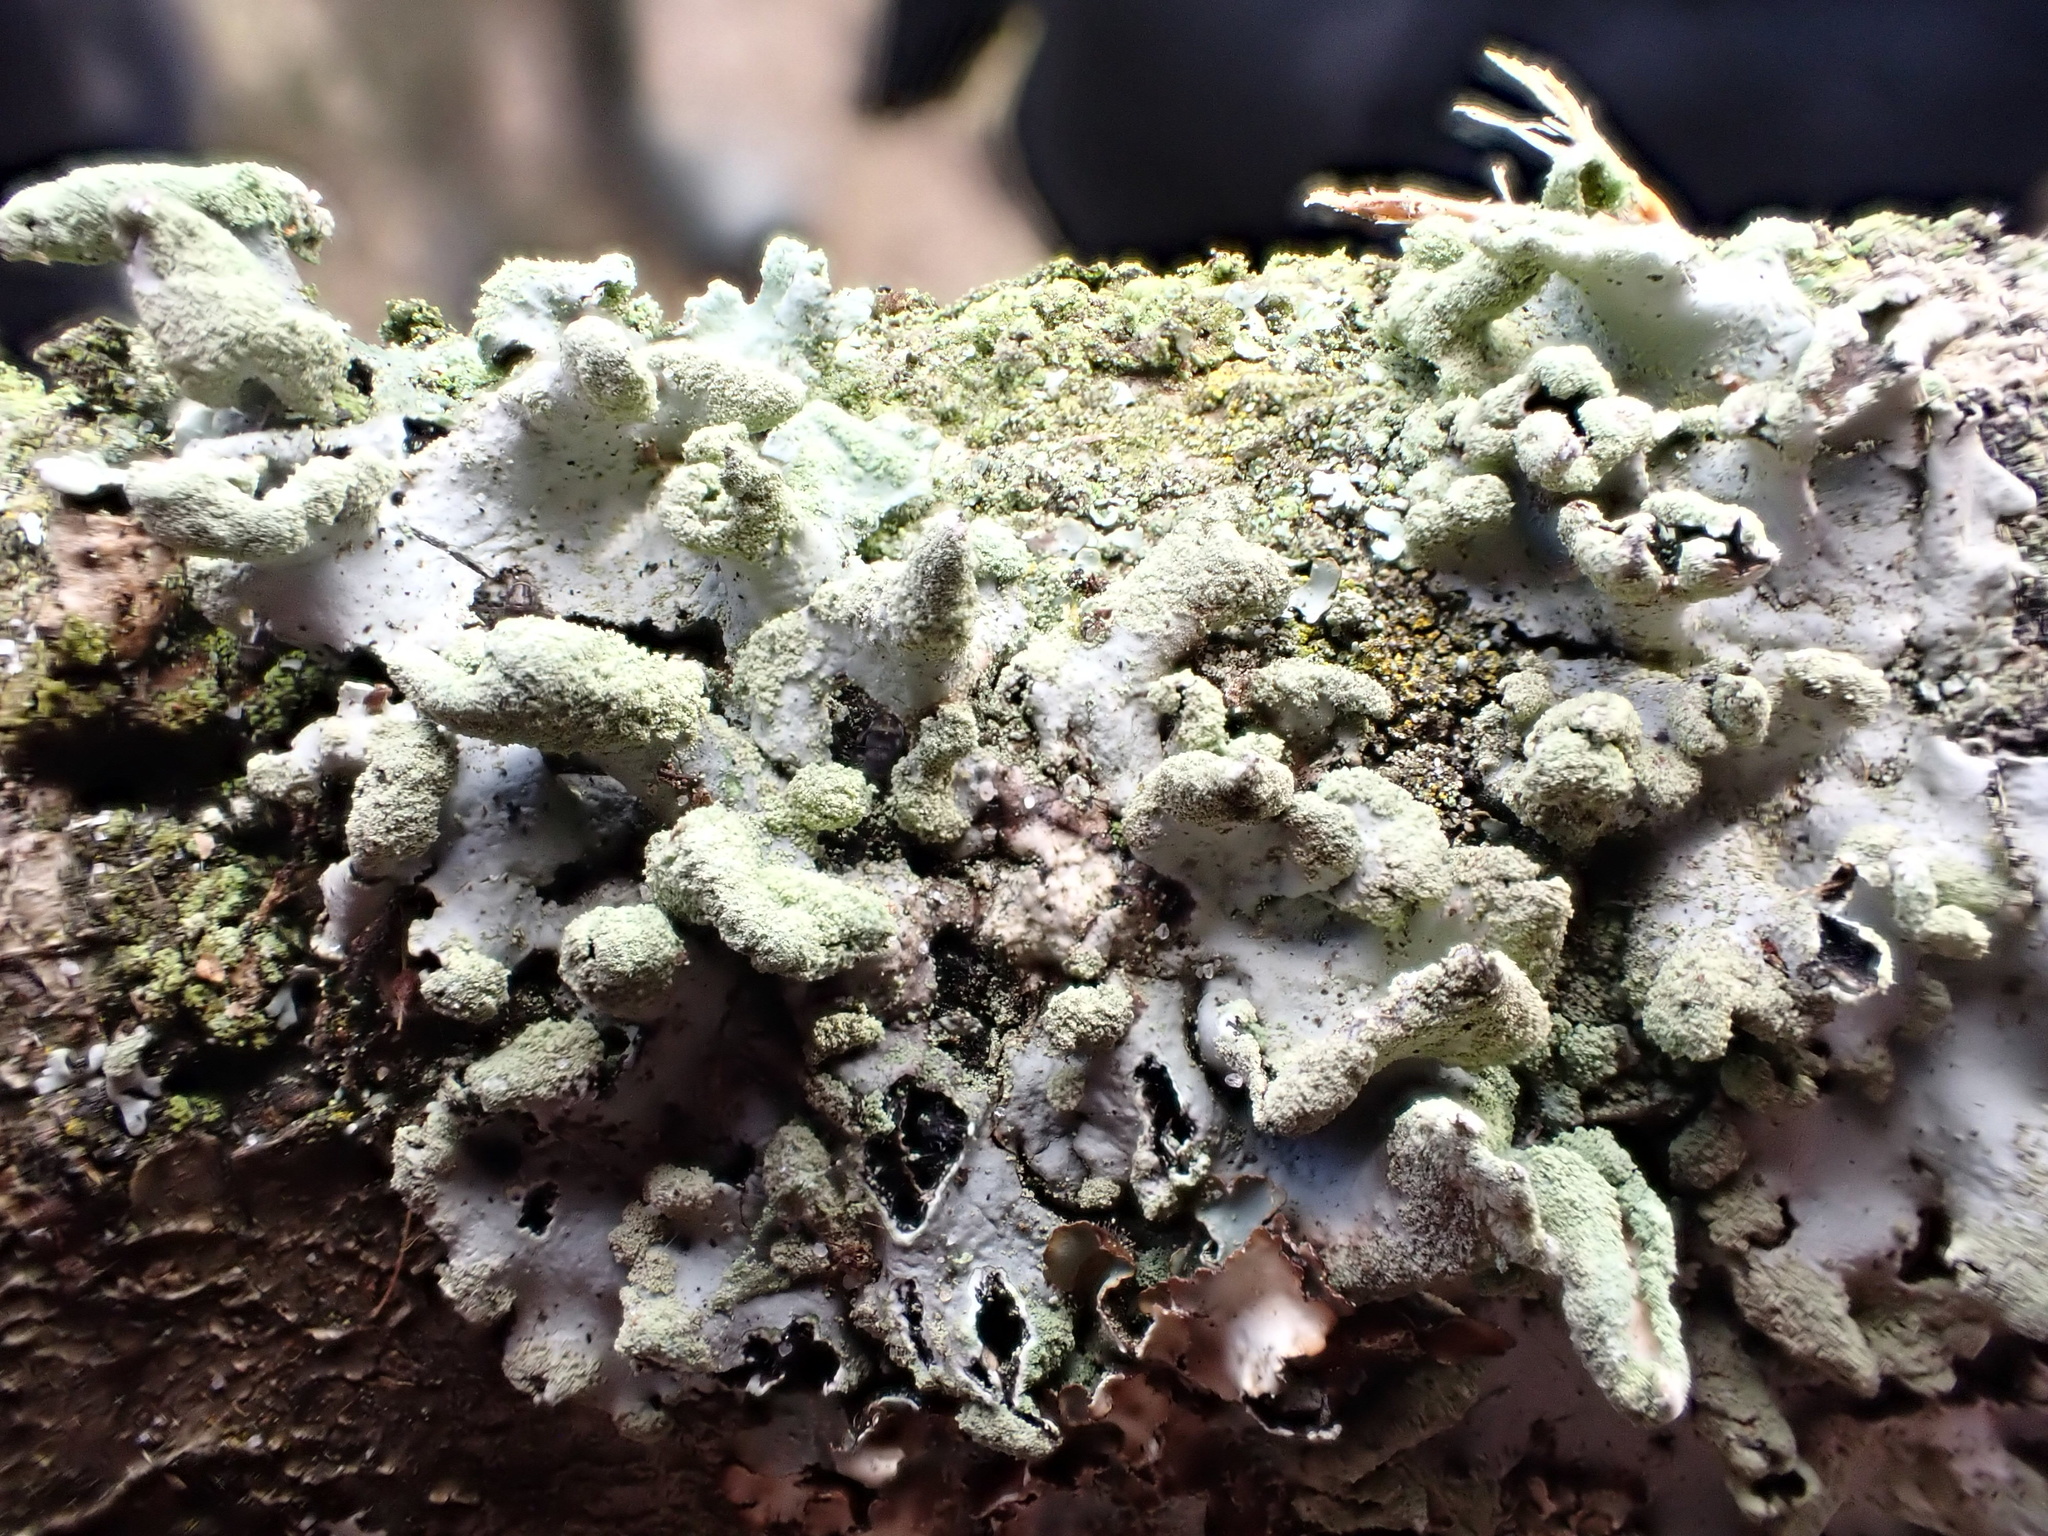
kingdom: Fungi
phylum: Ascomycota
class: Lecanoromycetes
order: Lecanorales
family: Parmeliaceae
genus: Hypotrachyna
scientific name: Hypotrachyna revoluta
